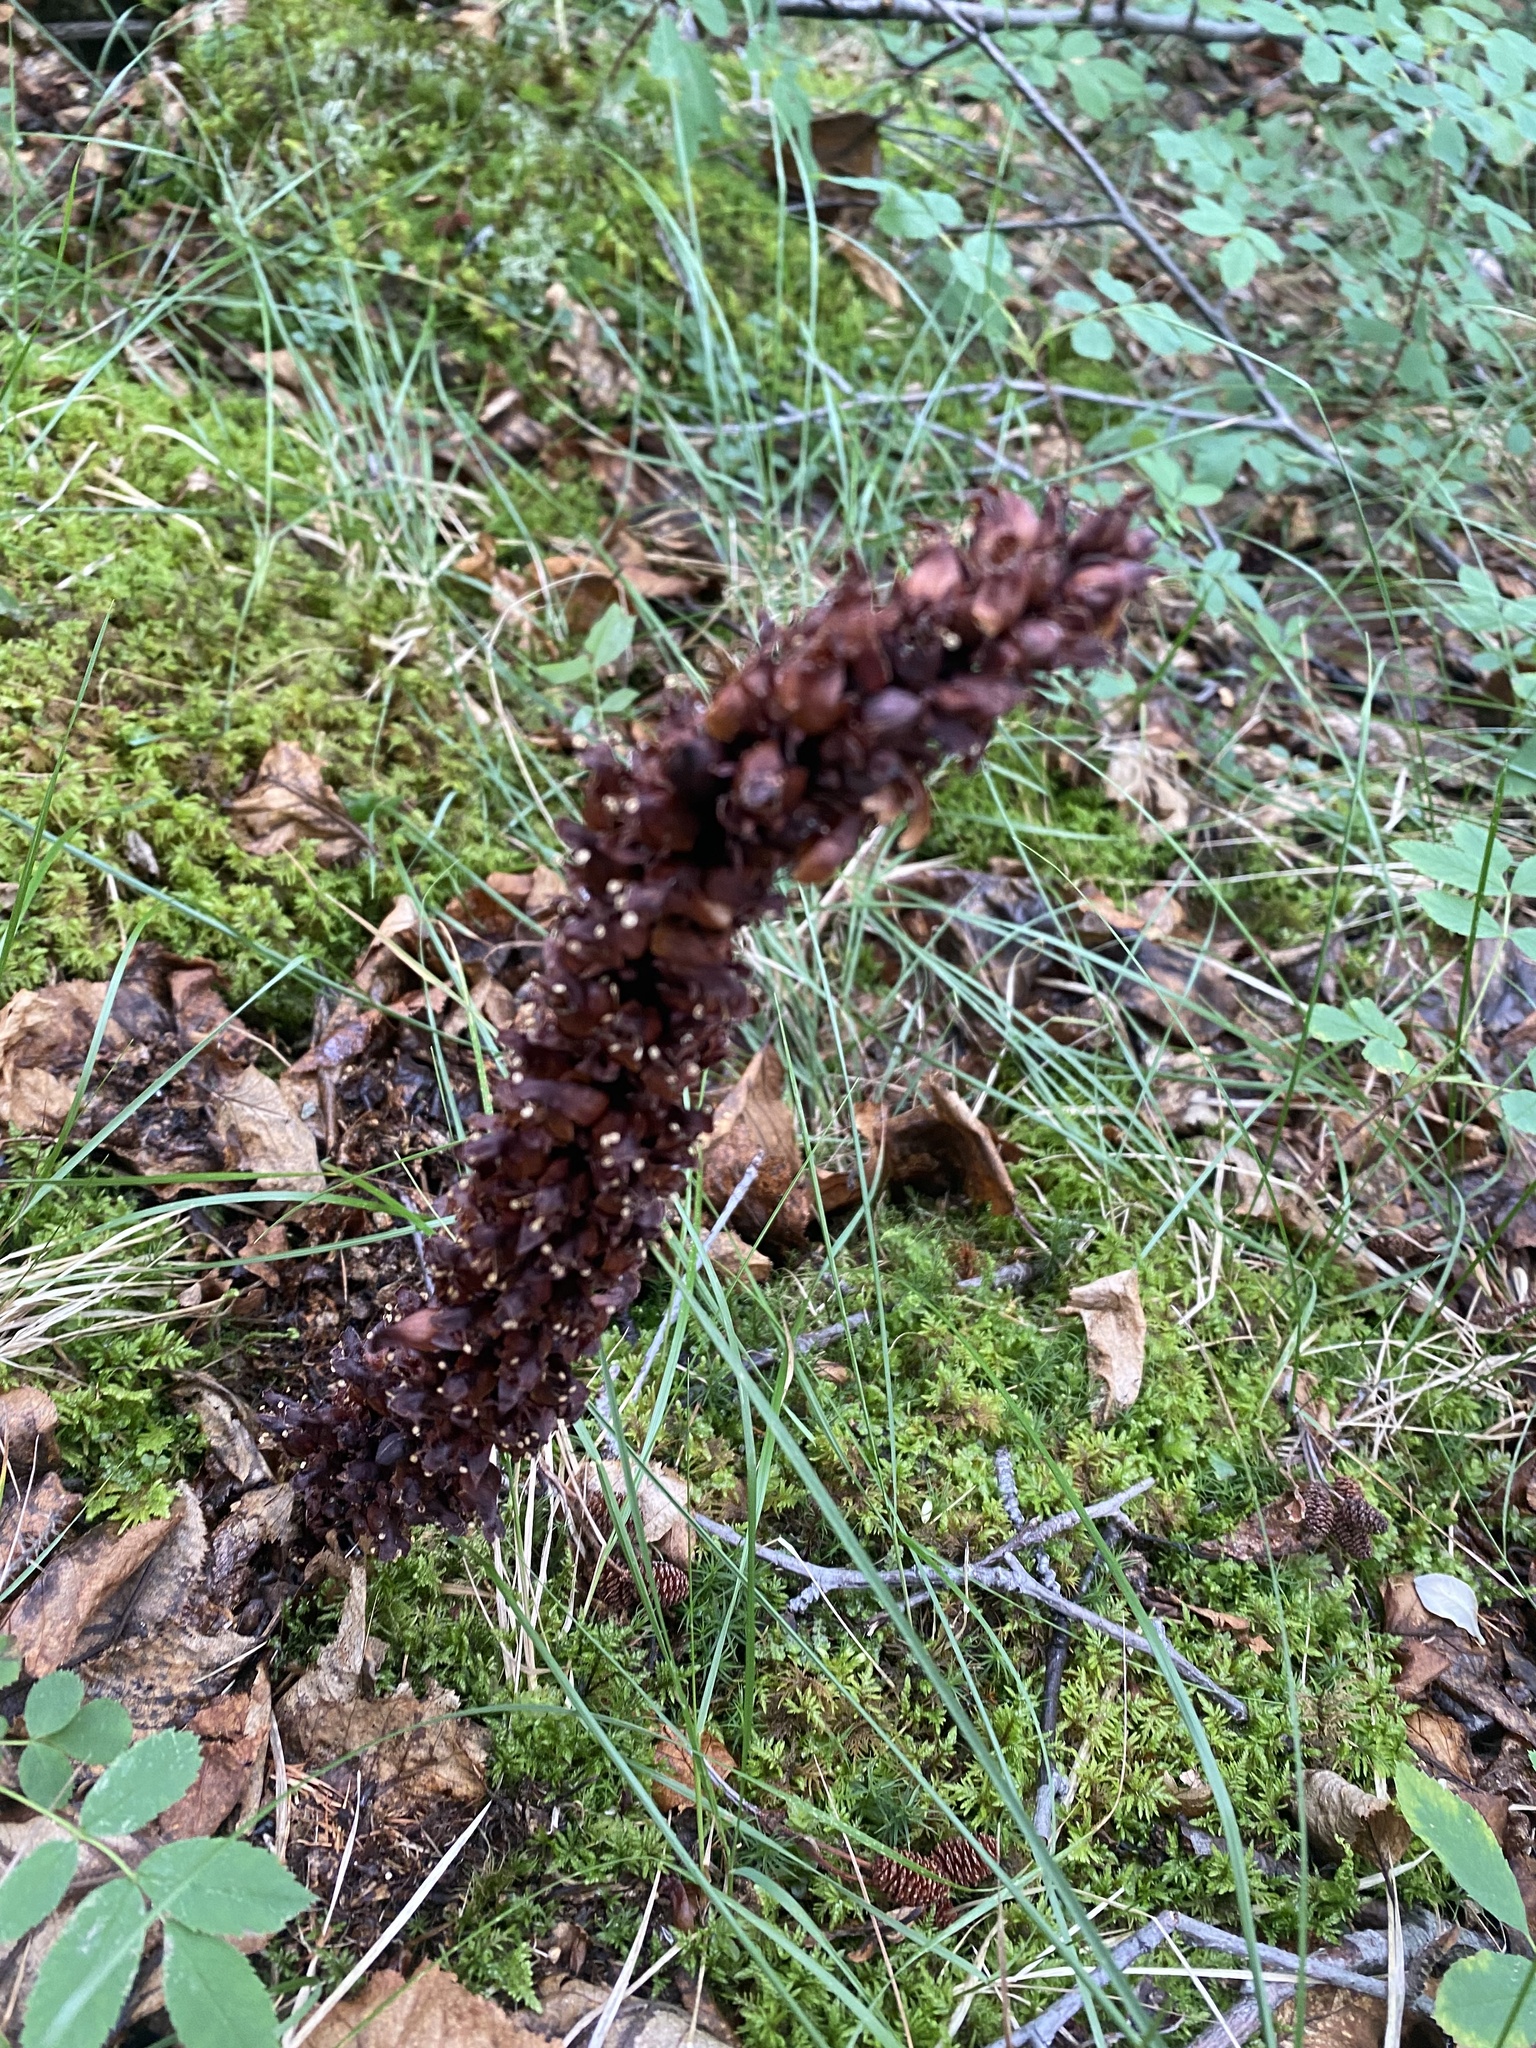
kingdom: Plantae
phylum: Tracheophyta
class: Magnoliopsida
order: Lamiales
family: Orobanchaceae
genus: Boschniakia
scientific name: Boschniakia rossica
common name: Poque
